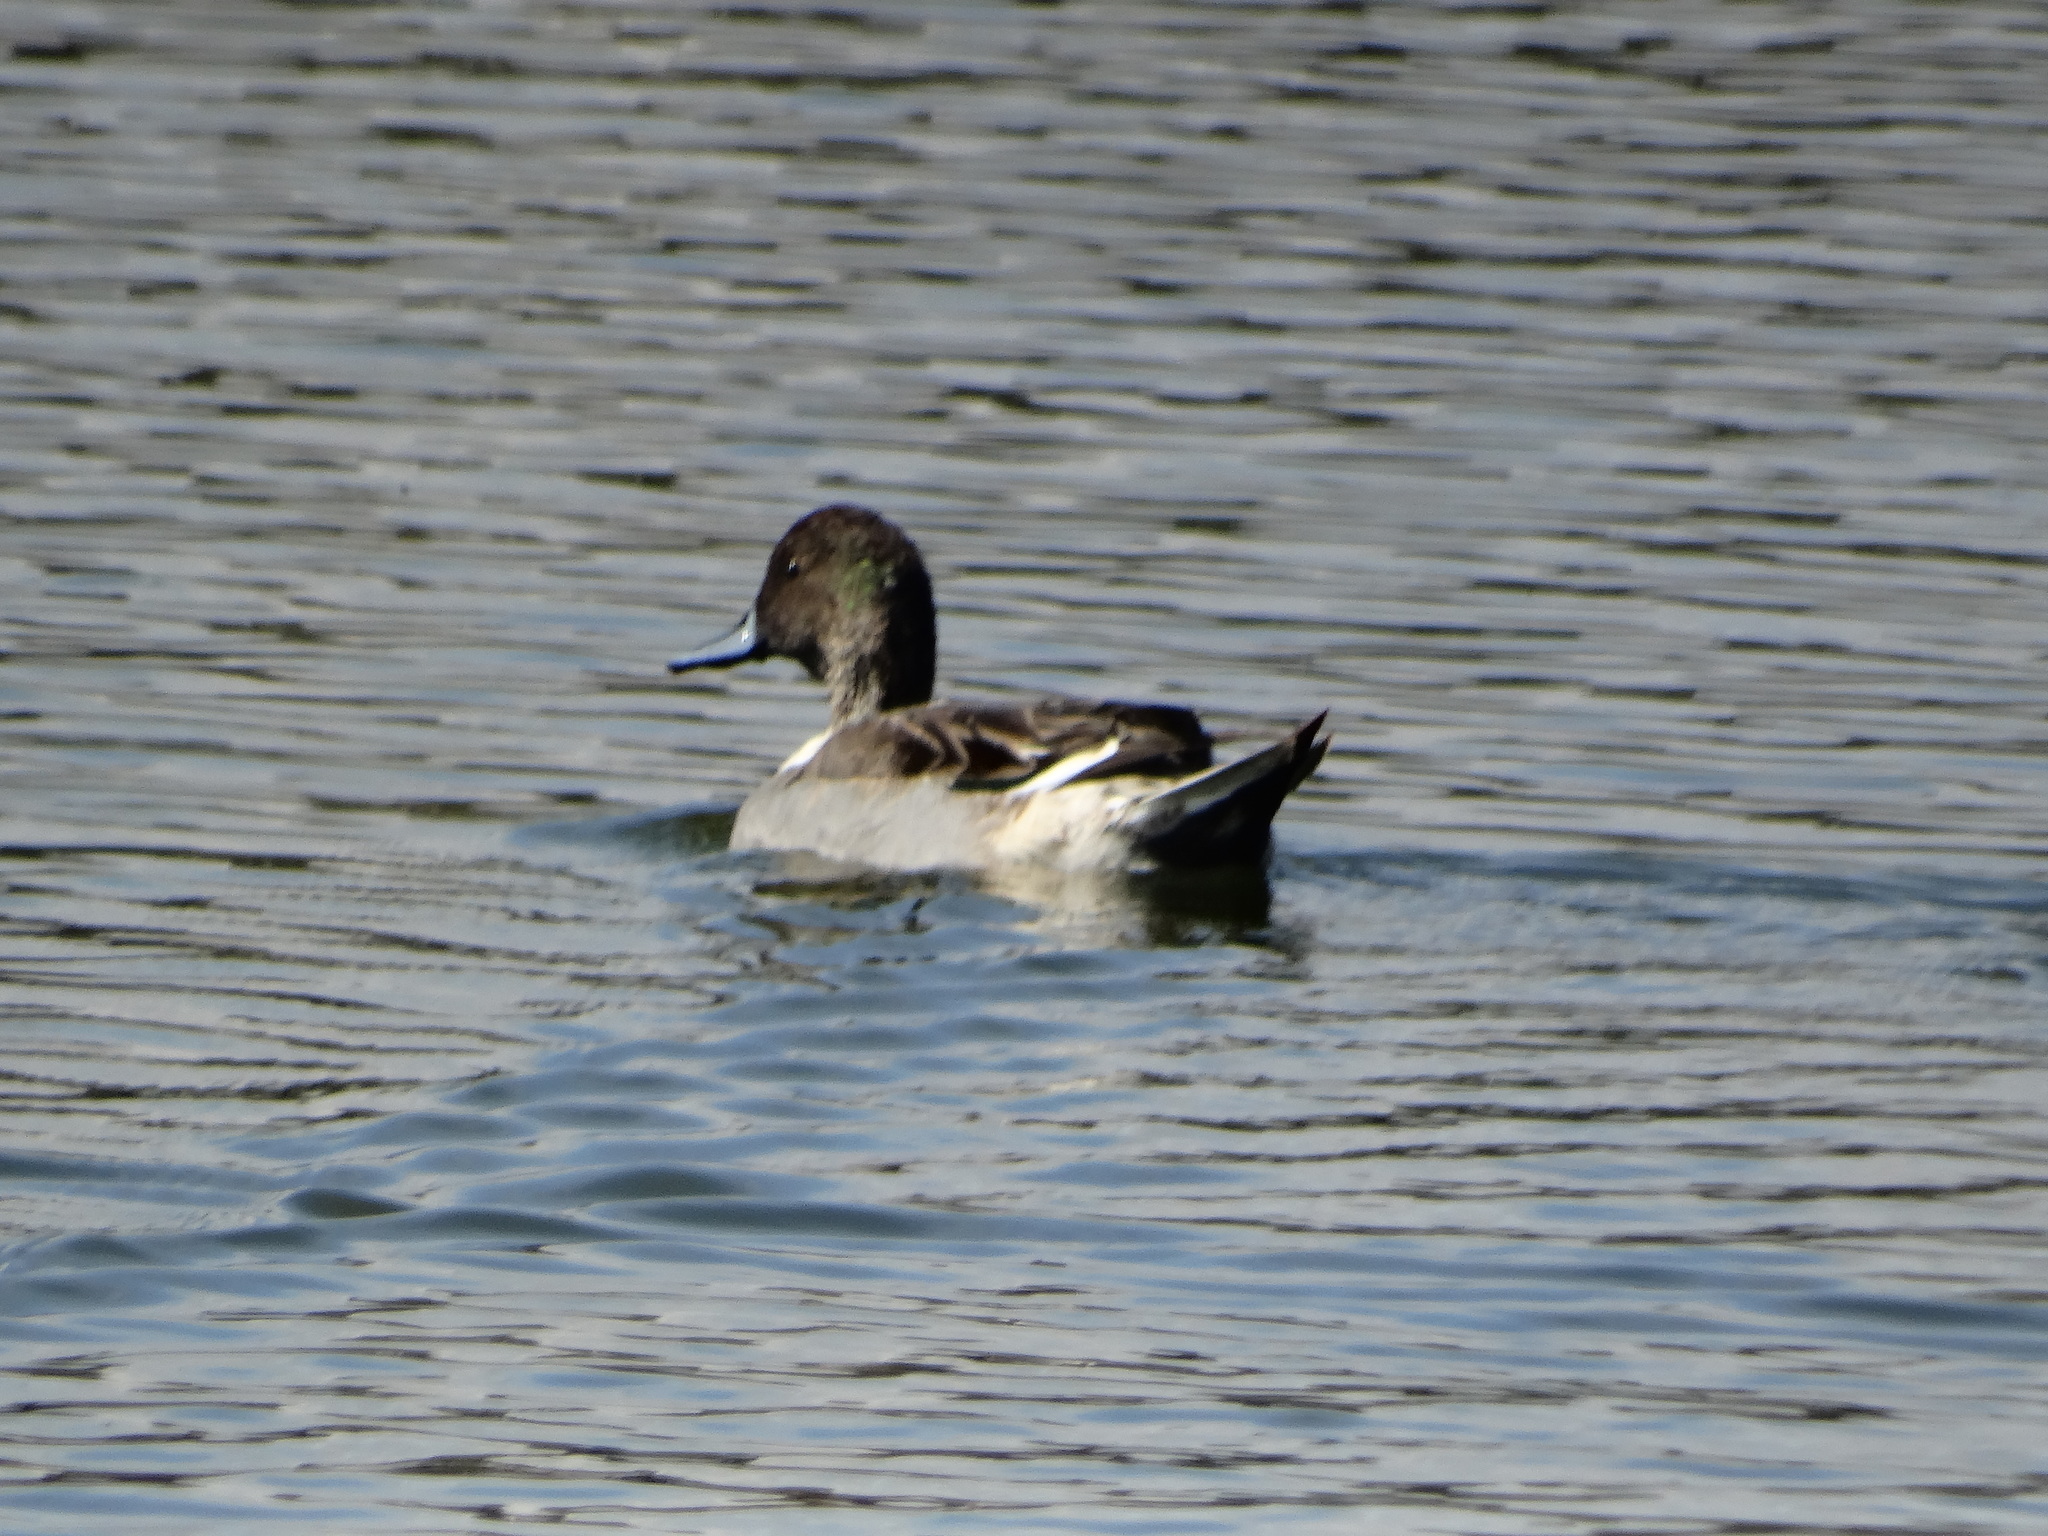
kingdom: Animalia
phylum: Chordata
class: Aves
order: Anseriformes
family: Anatidae
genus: Anas
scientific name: Anas acuta
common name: Northern pintail
